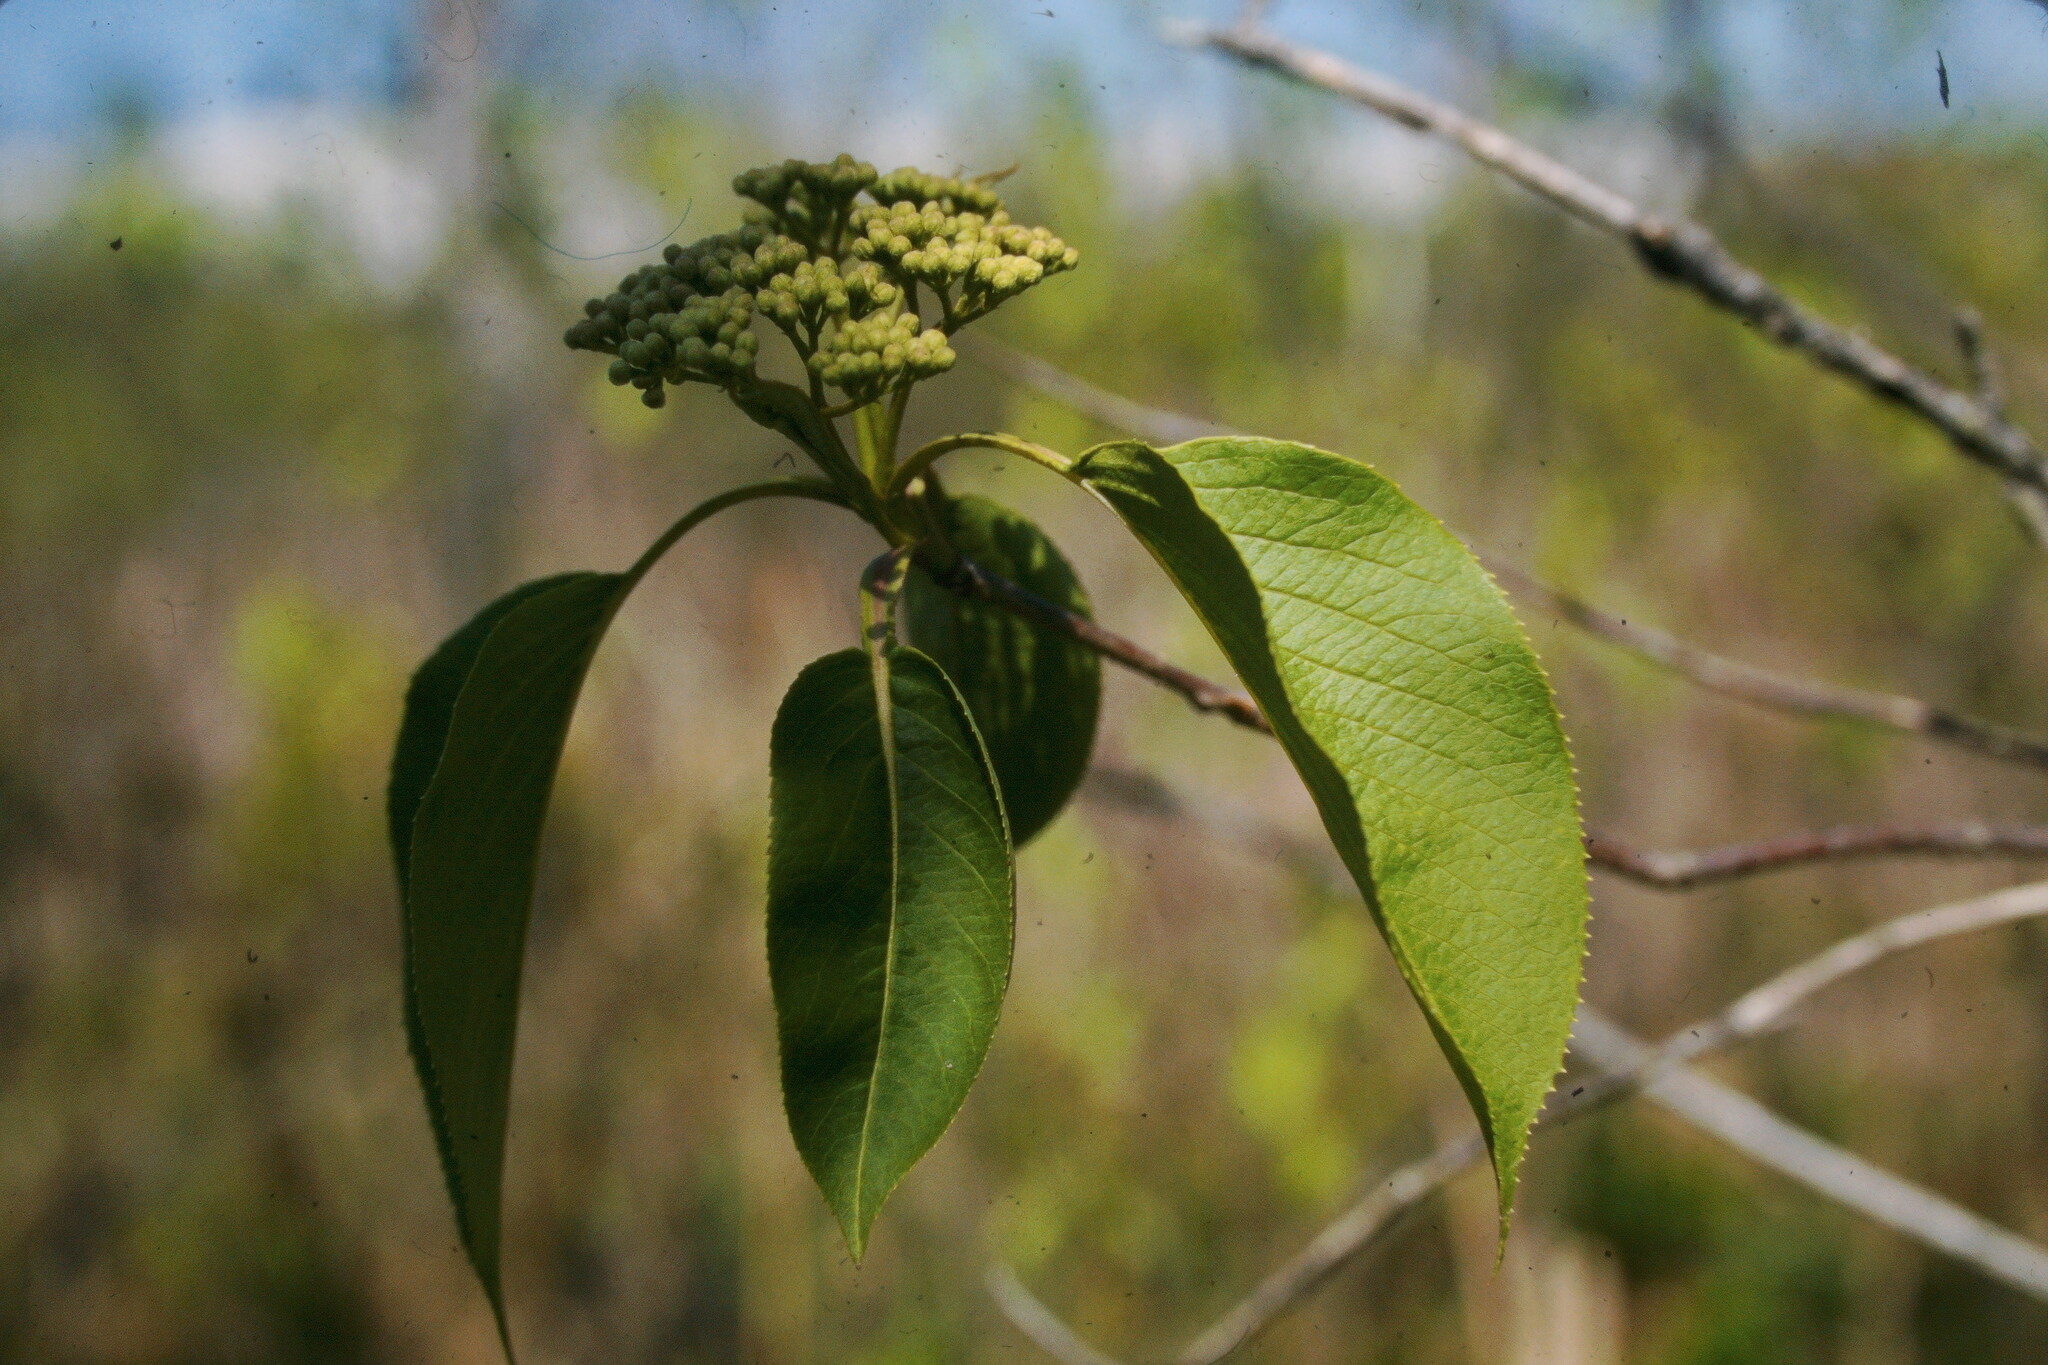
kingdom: Plantae
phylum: Tracheophyta
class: Magnoliopsida
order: Dipsacales
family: Viburnaceae
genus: Viburnum
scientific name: Viburnum lentago
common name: Black haw
